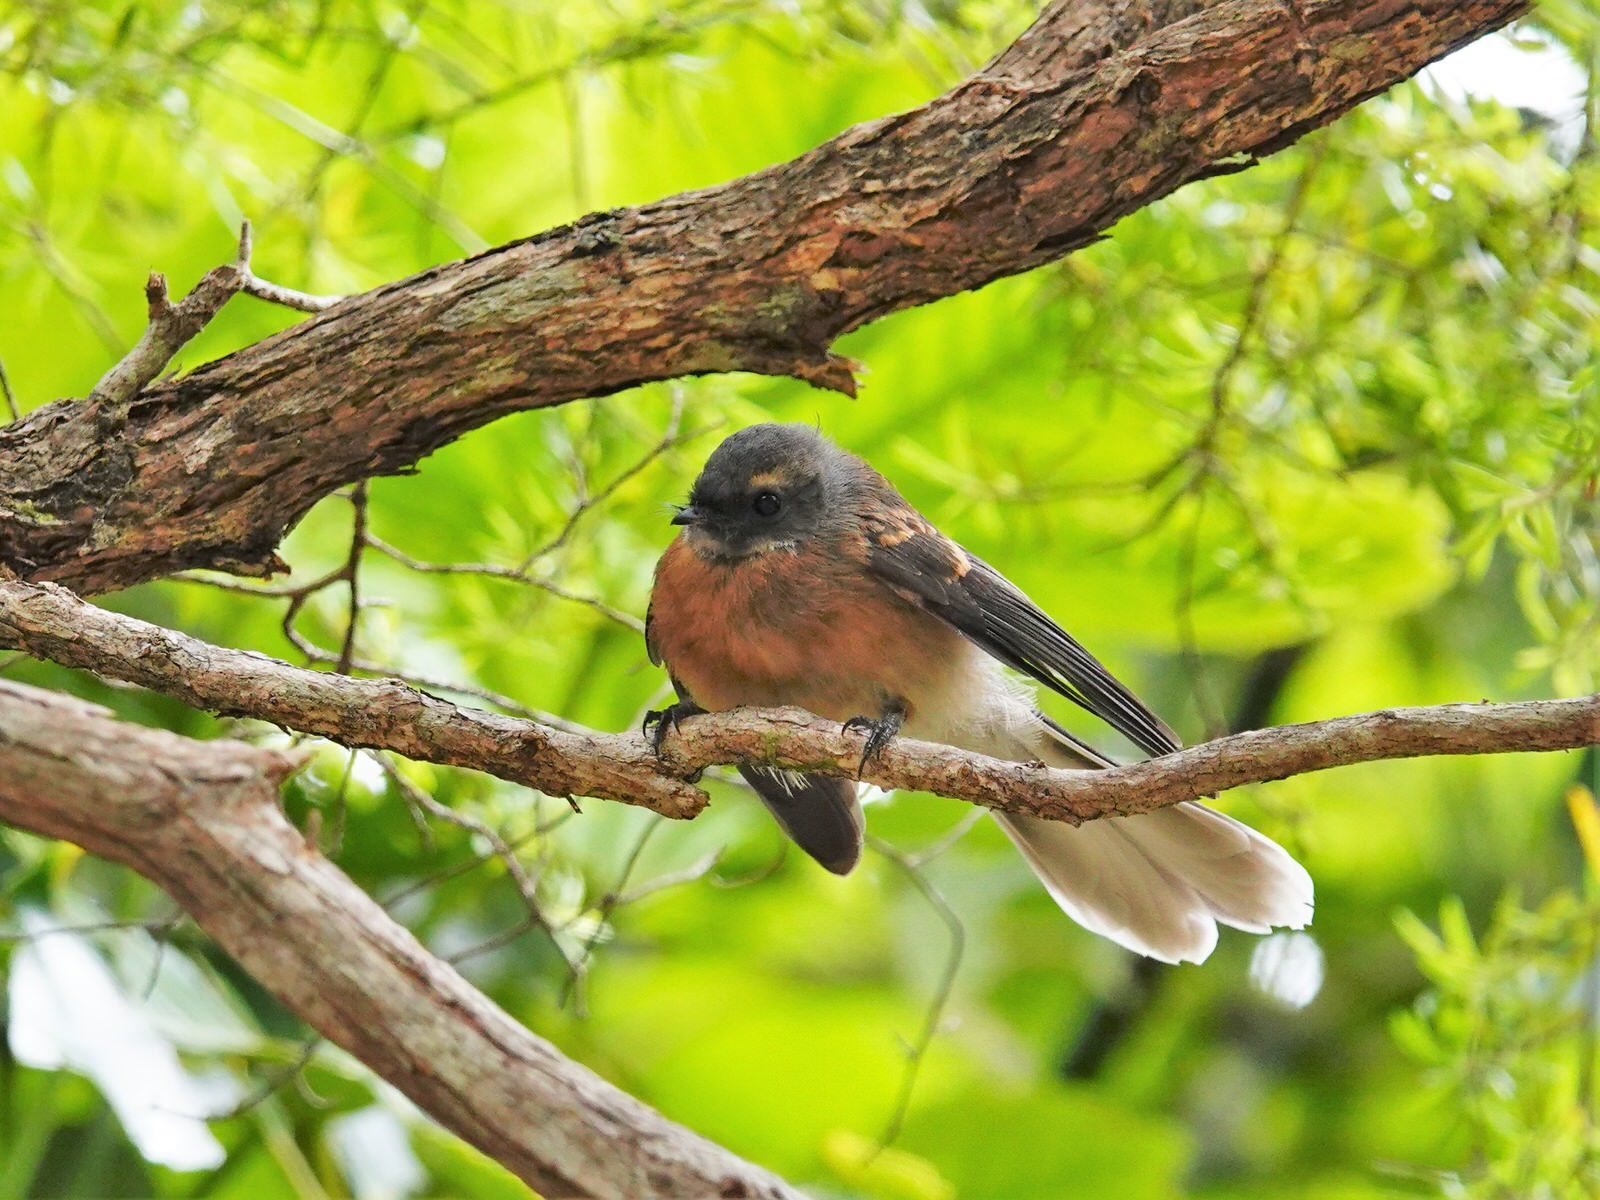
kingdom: Animalia
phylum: Chordata
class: Aves
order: Passeriformes
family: Rhipiduridae
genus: Rhipidura
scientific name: Rhipidura fuliginosa
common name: New zealand fantail
